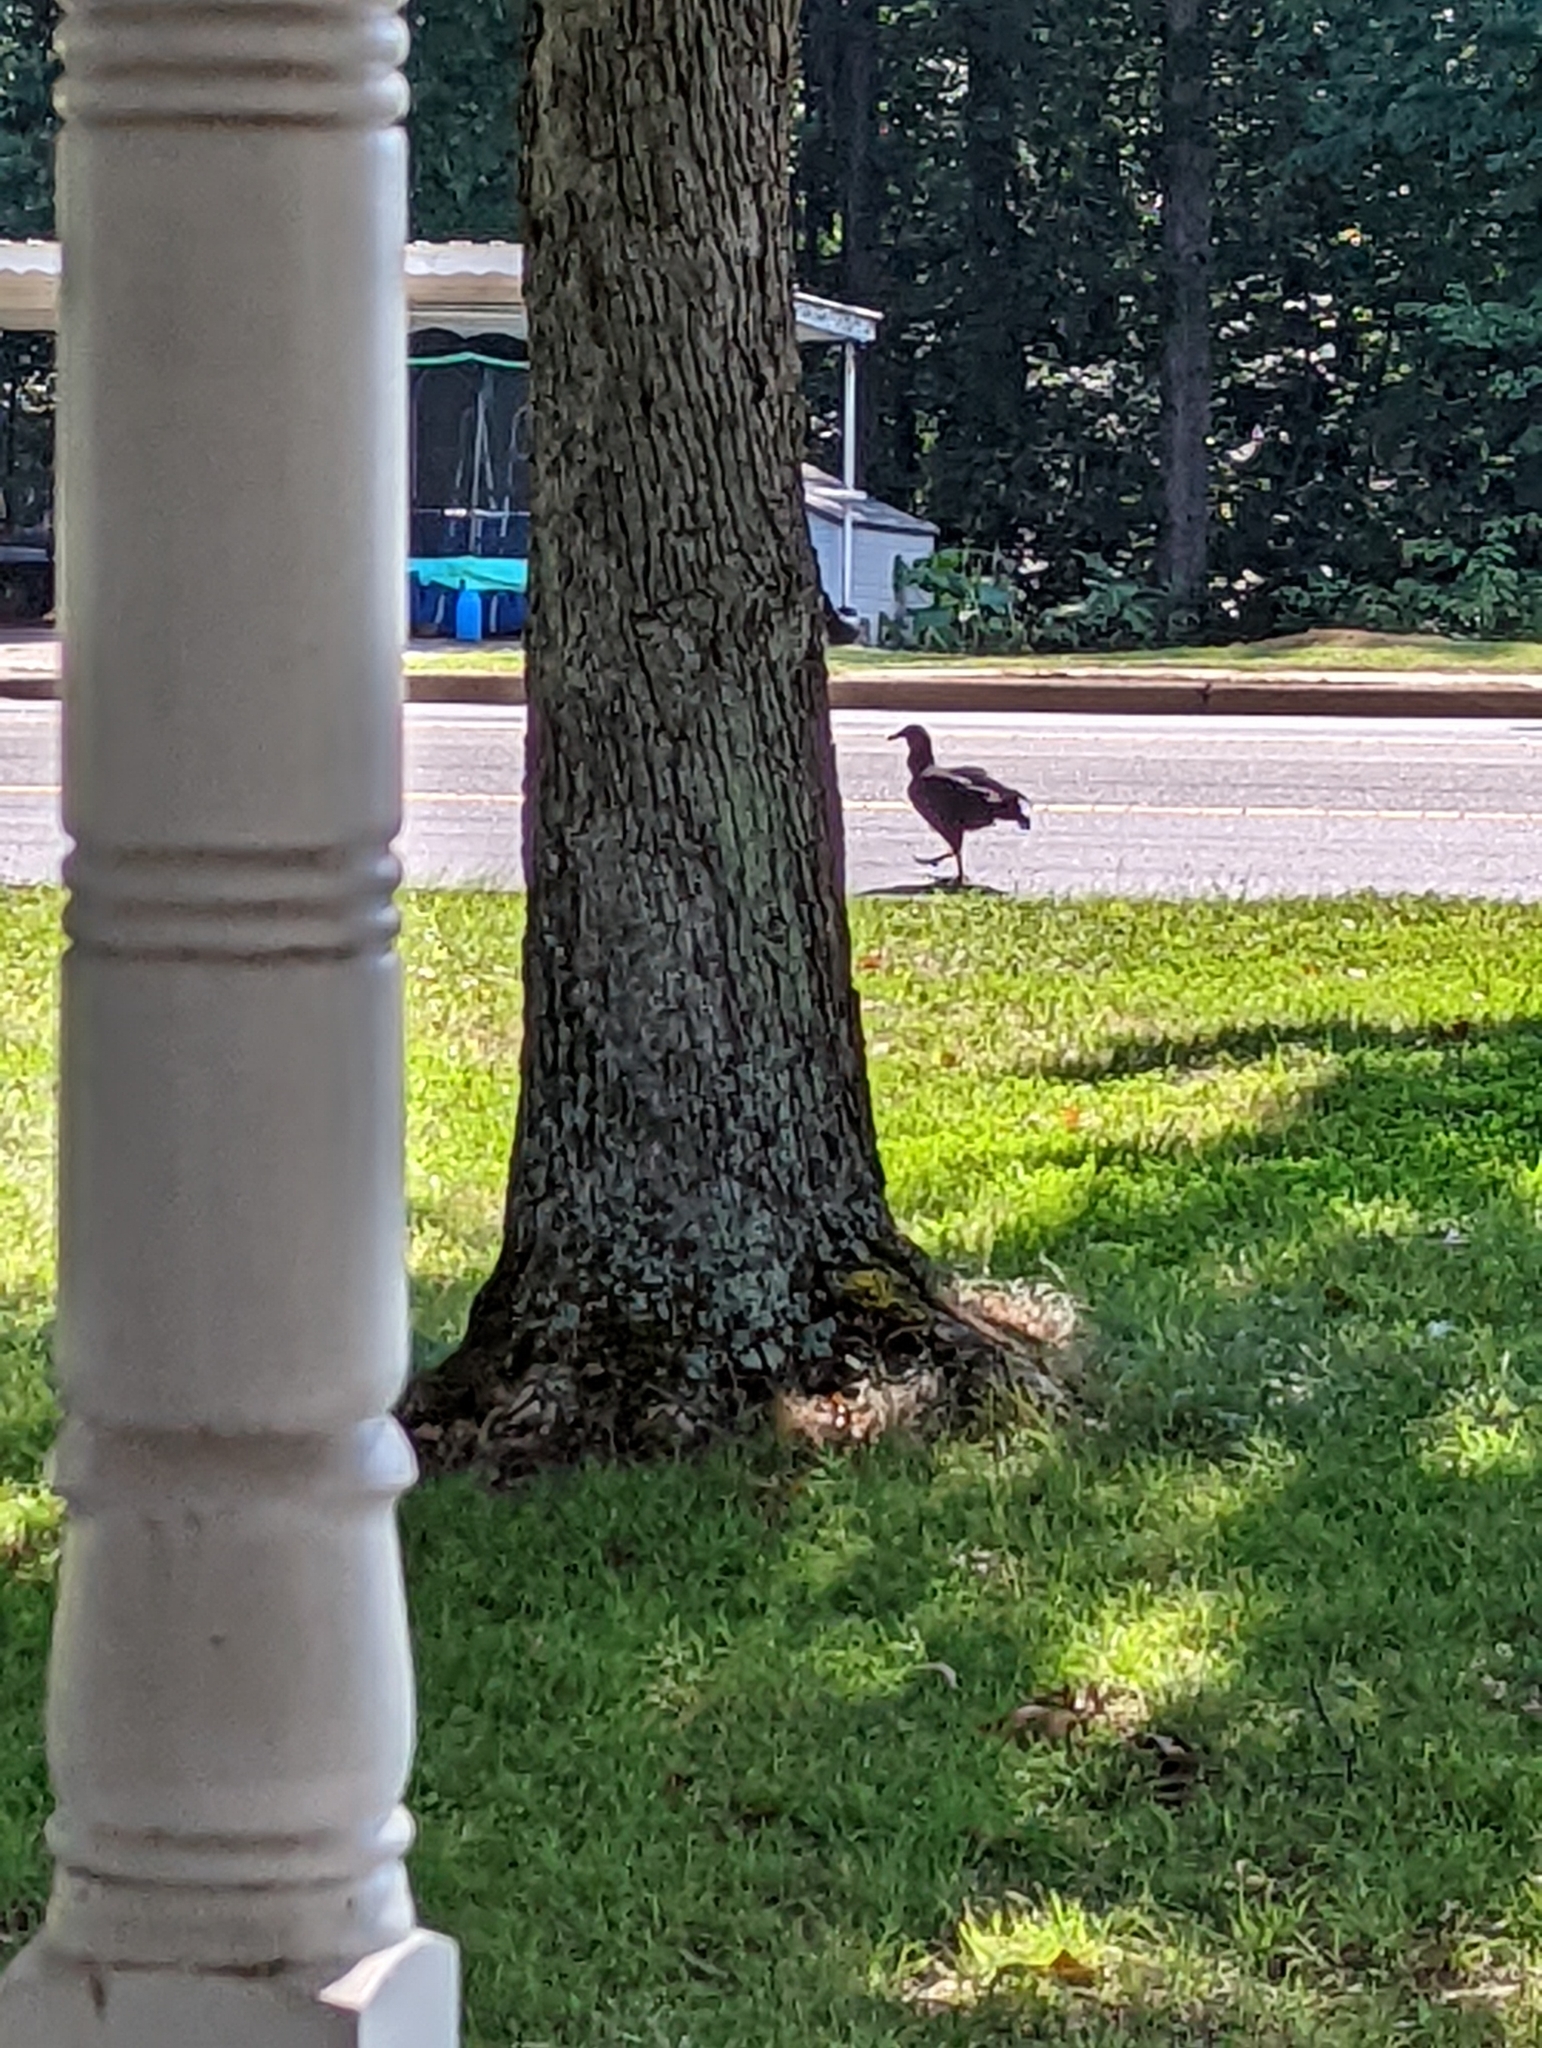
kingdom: Animalia
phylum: Chordata
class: Aves
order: Accipitriformes
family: Cathartidae
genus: Coragyps
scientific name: Coragyps atratus
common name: Black vulture
